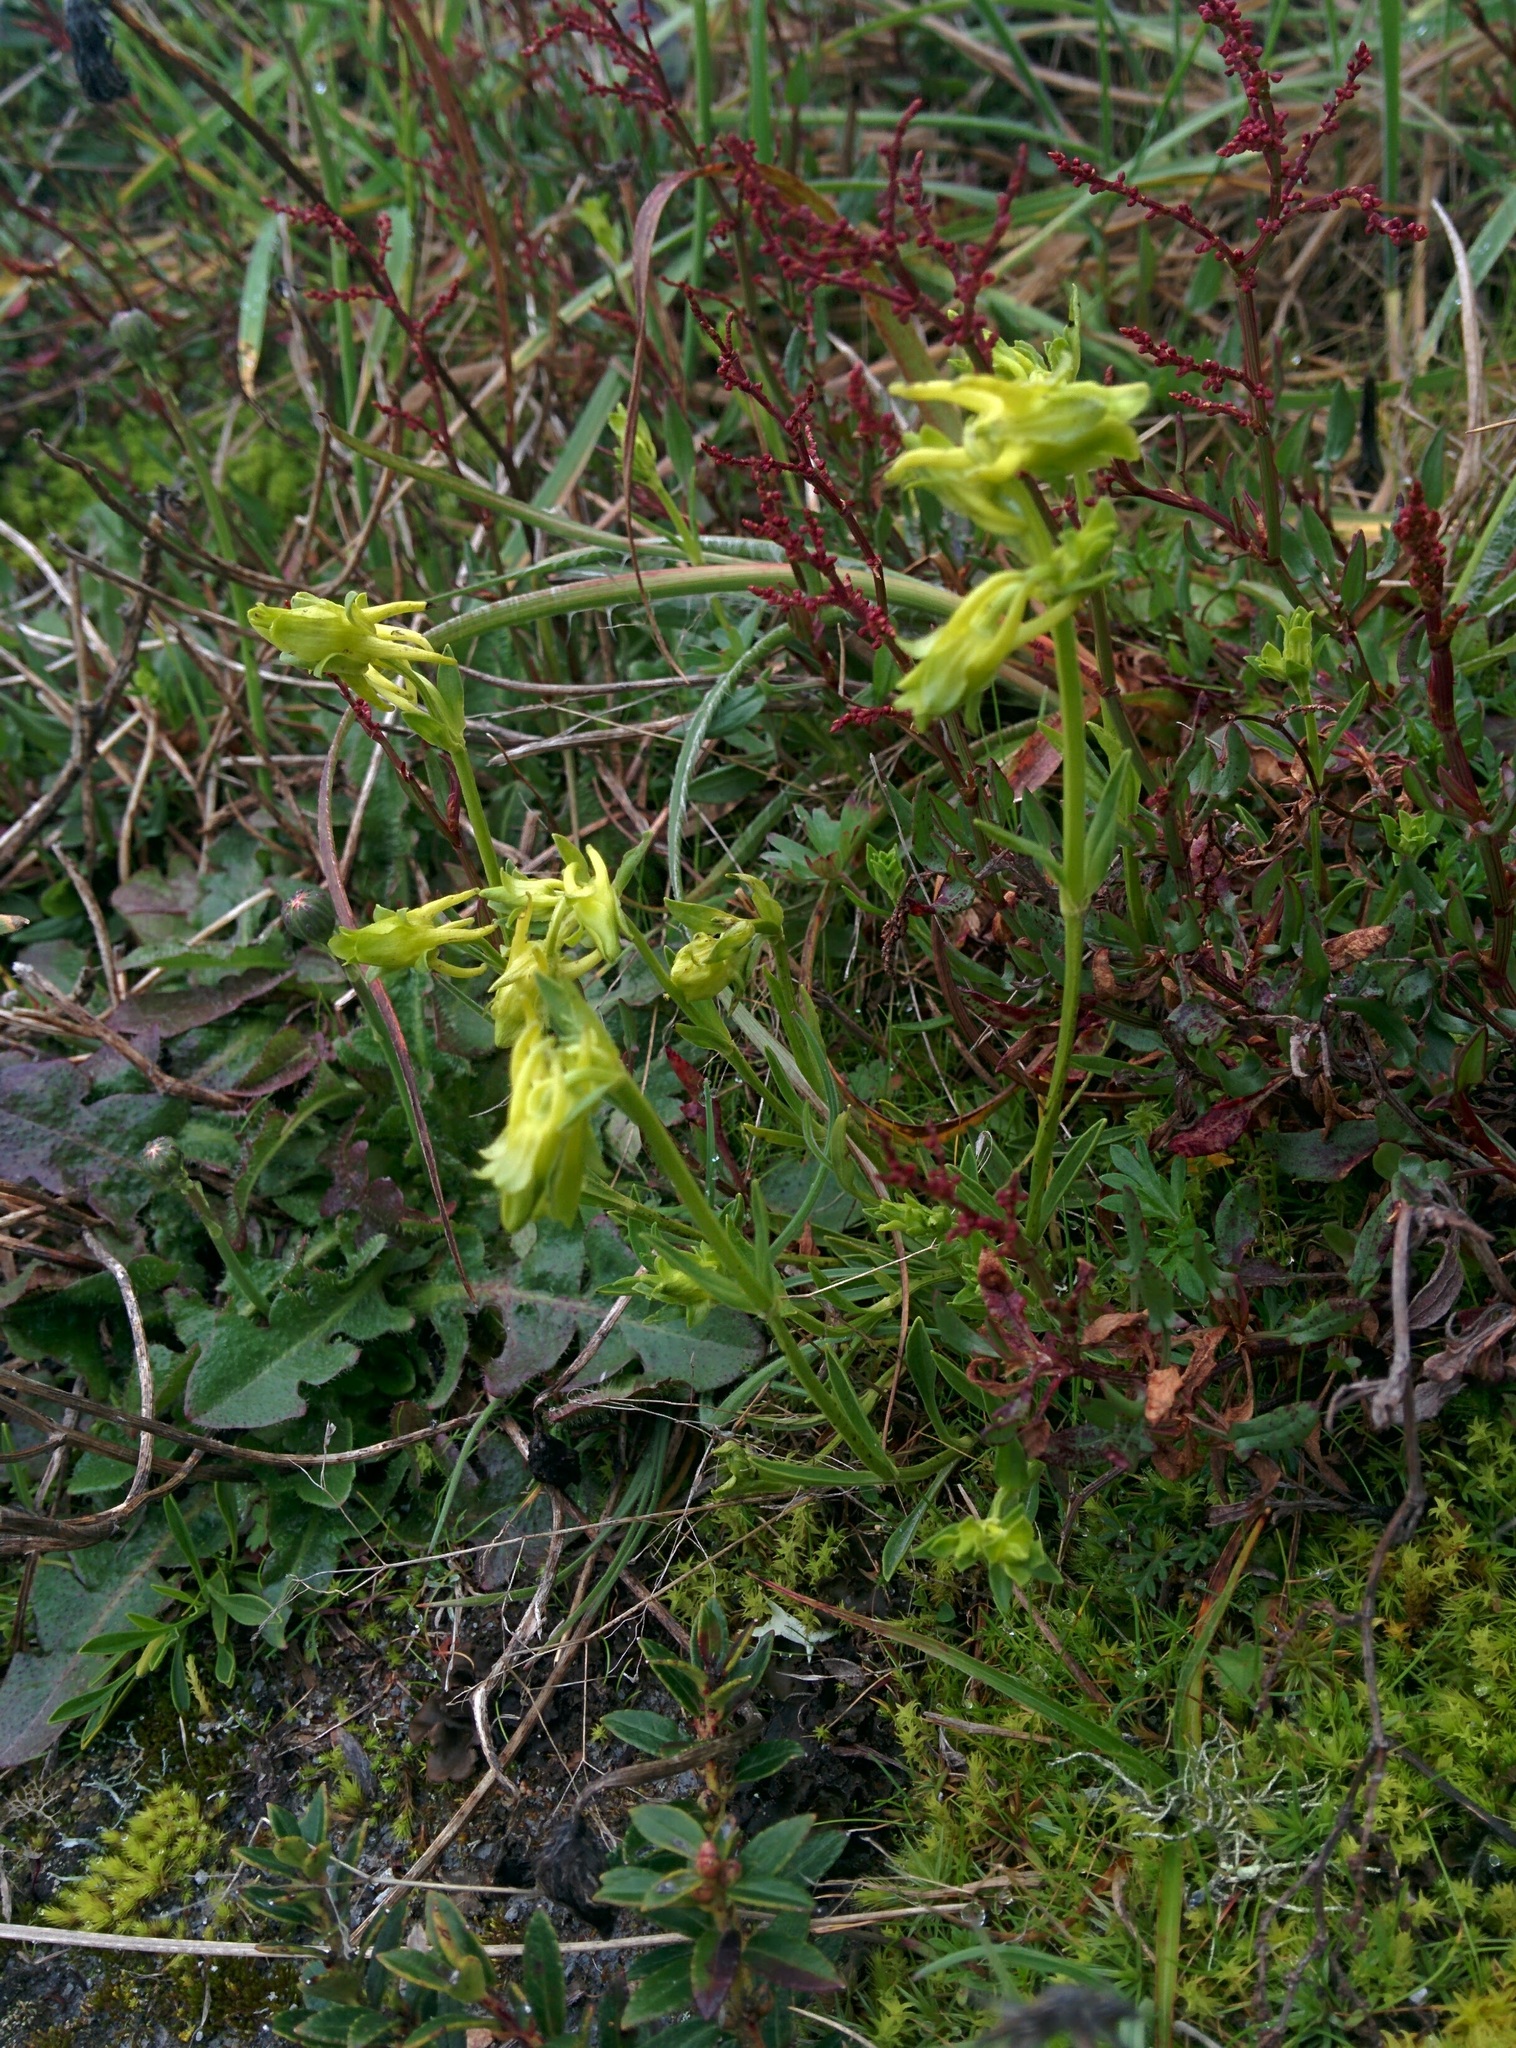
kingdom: Plantae
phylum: Tracheophyta
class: Magnoliopsida
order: Gentianales
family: Gentianaceae
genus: Halenia
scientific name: Halenia weddelliana
